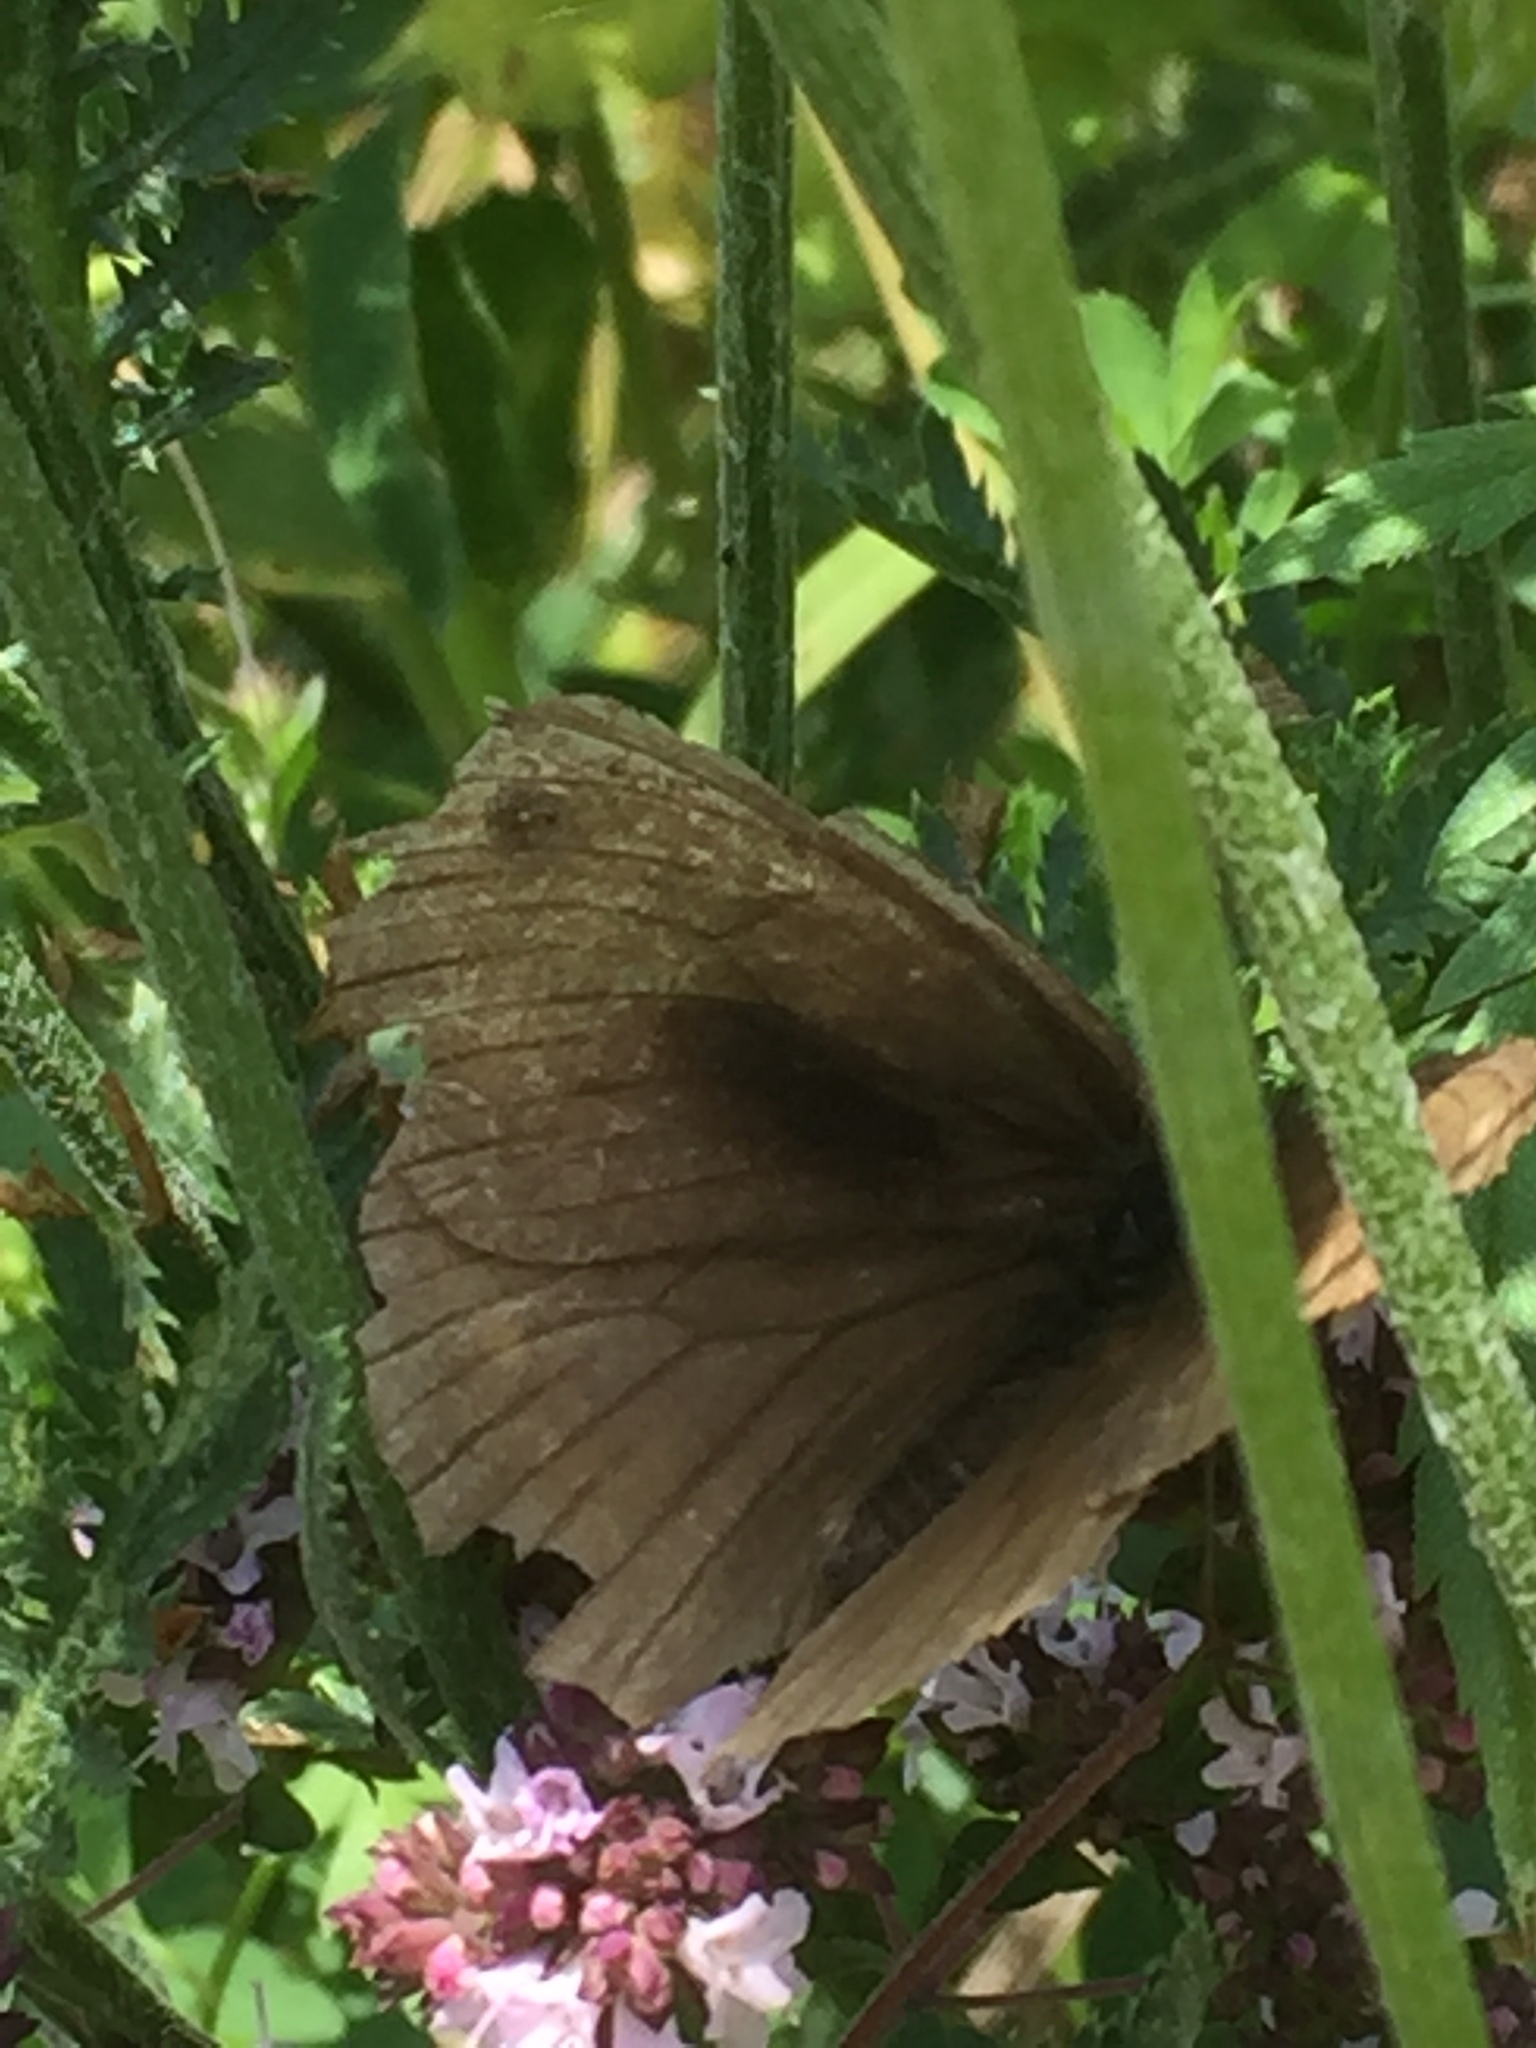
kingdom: Animalia
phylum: Arthropoda
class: Insecta
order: Lepidoptera
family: Nymphalidae
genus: Maniola
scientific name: Maniola jurtina
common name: Meadow brown
